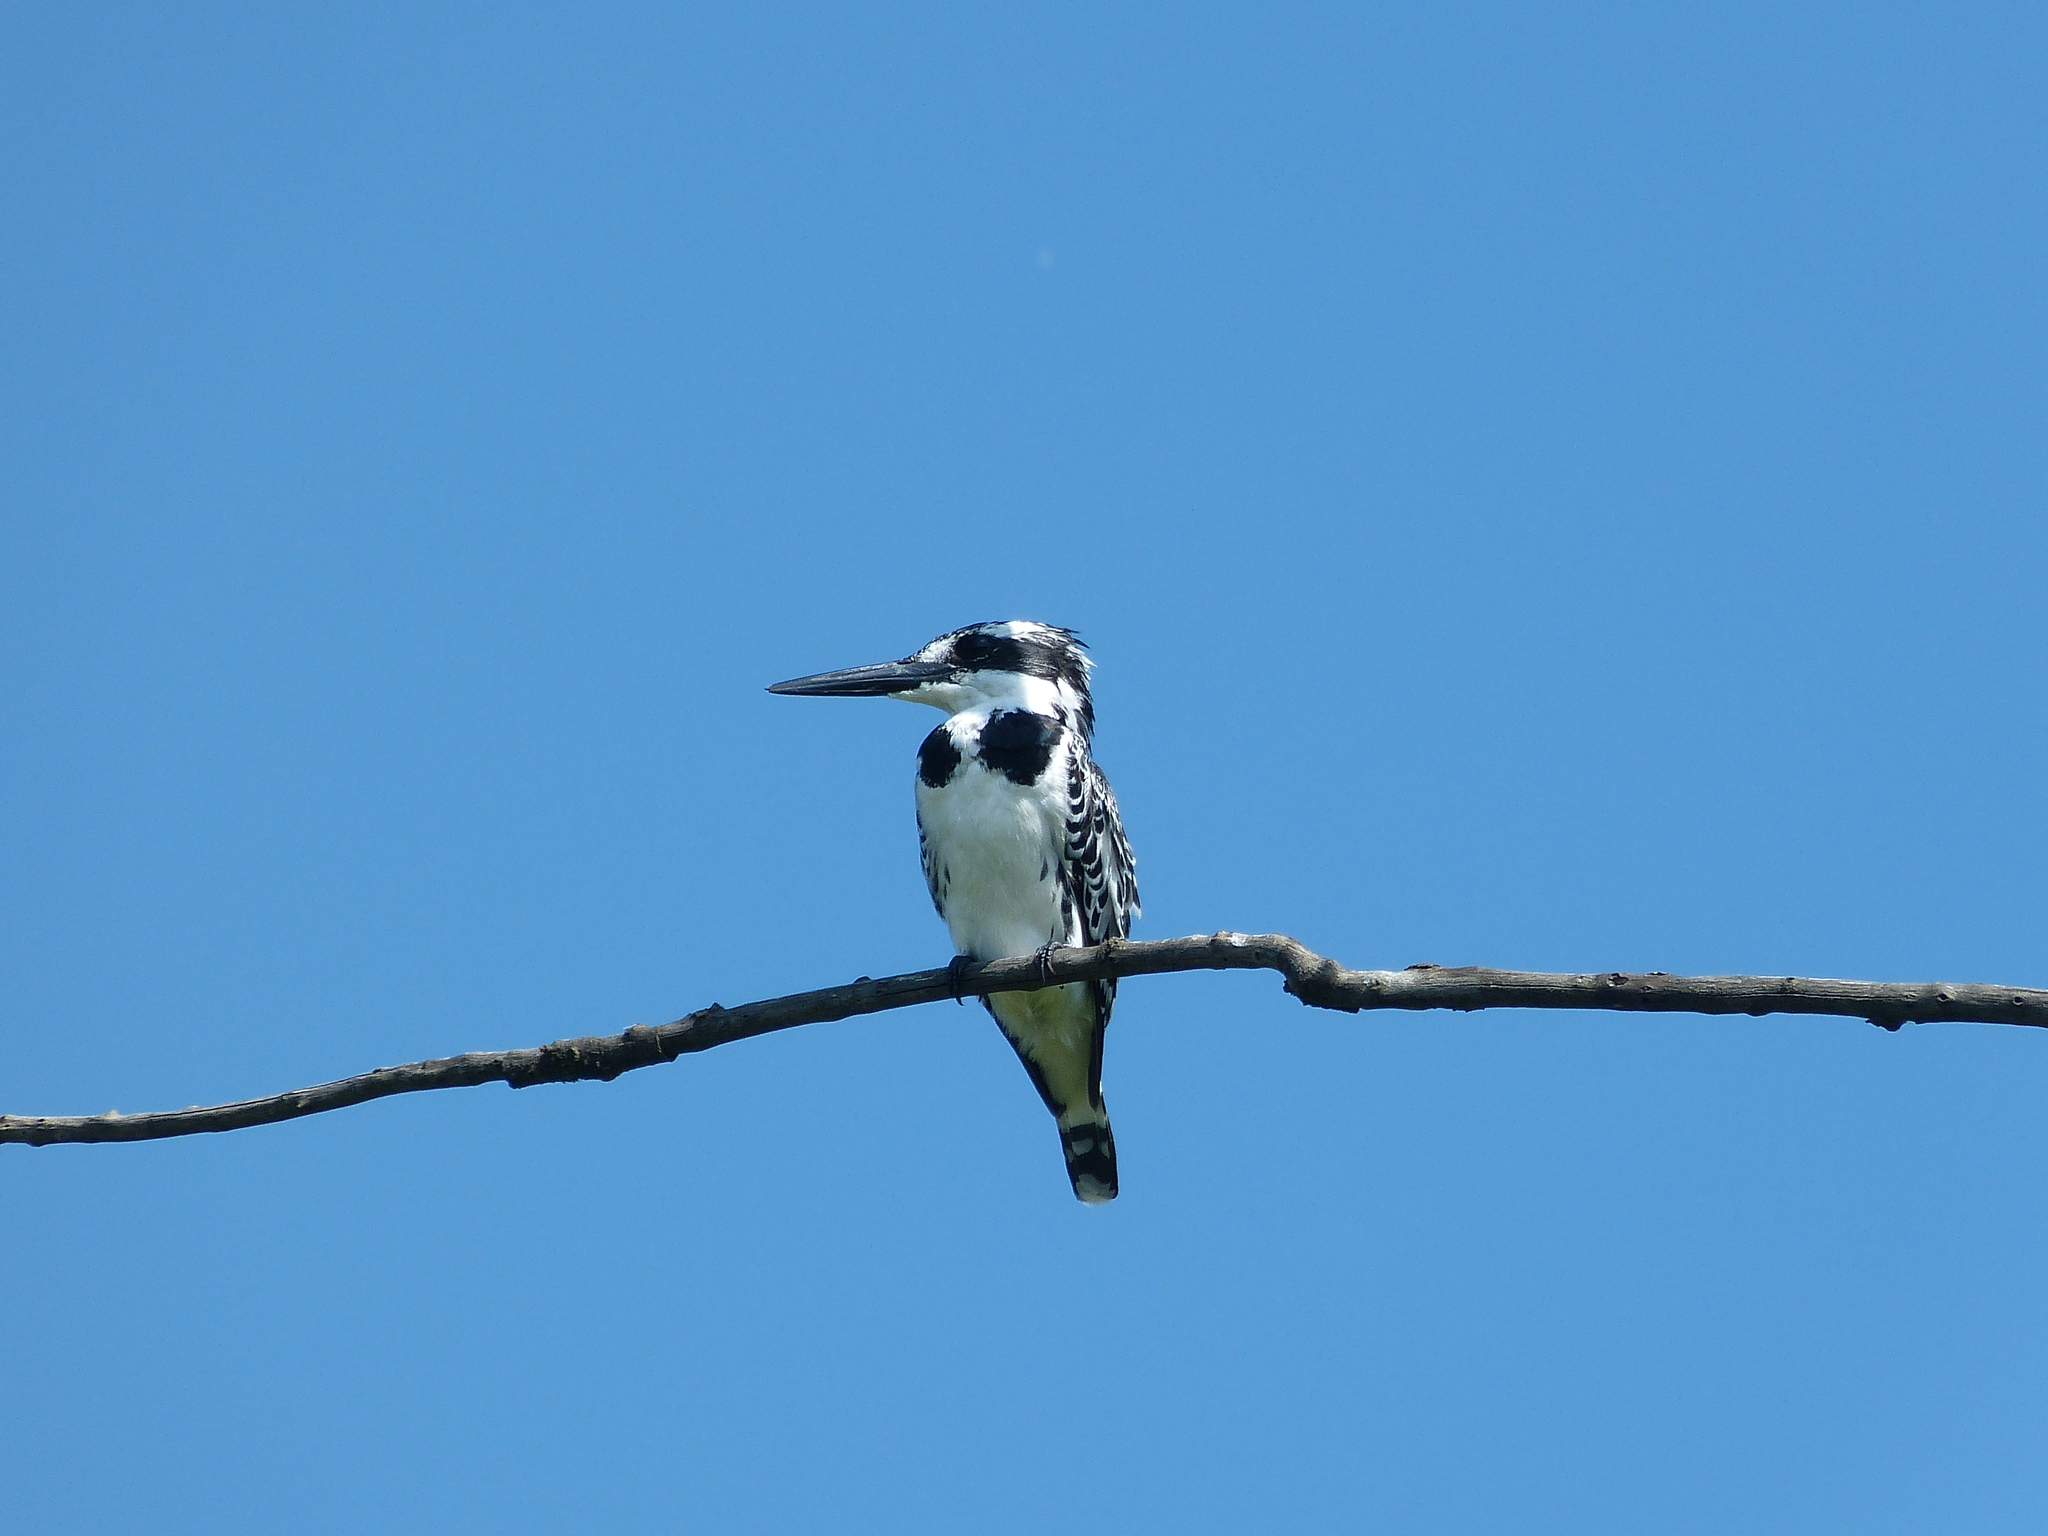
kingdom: Animalia
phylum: Chordata
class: Aves
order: Coraciiformes
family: Alcedinidae
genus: Ceryle
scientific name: Ceryle rudis
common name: Pied kingfisher
